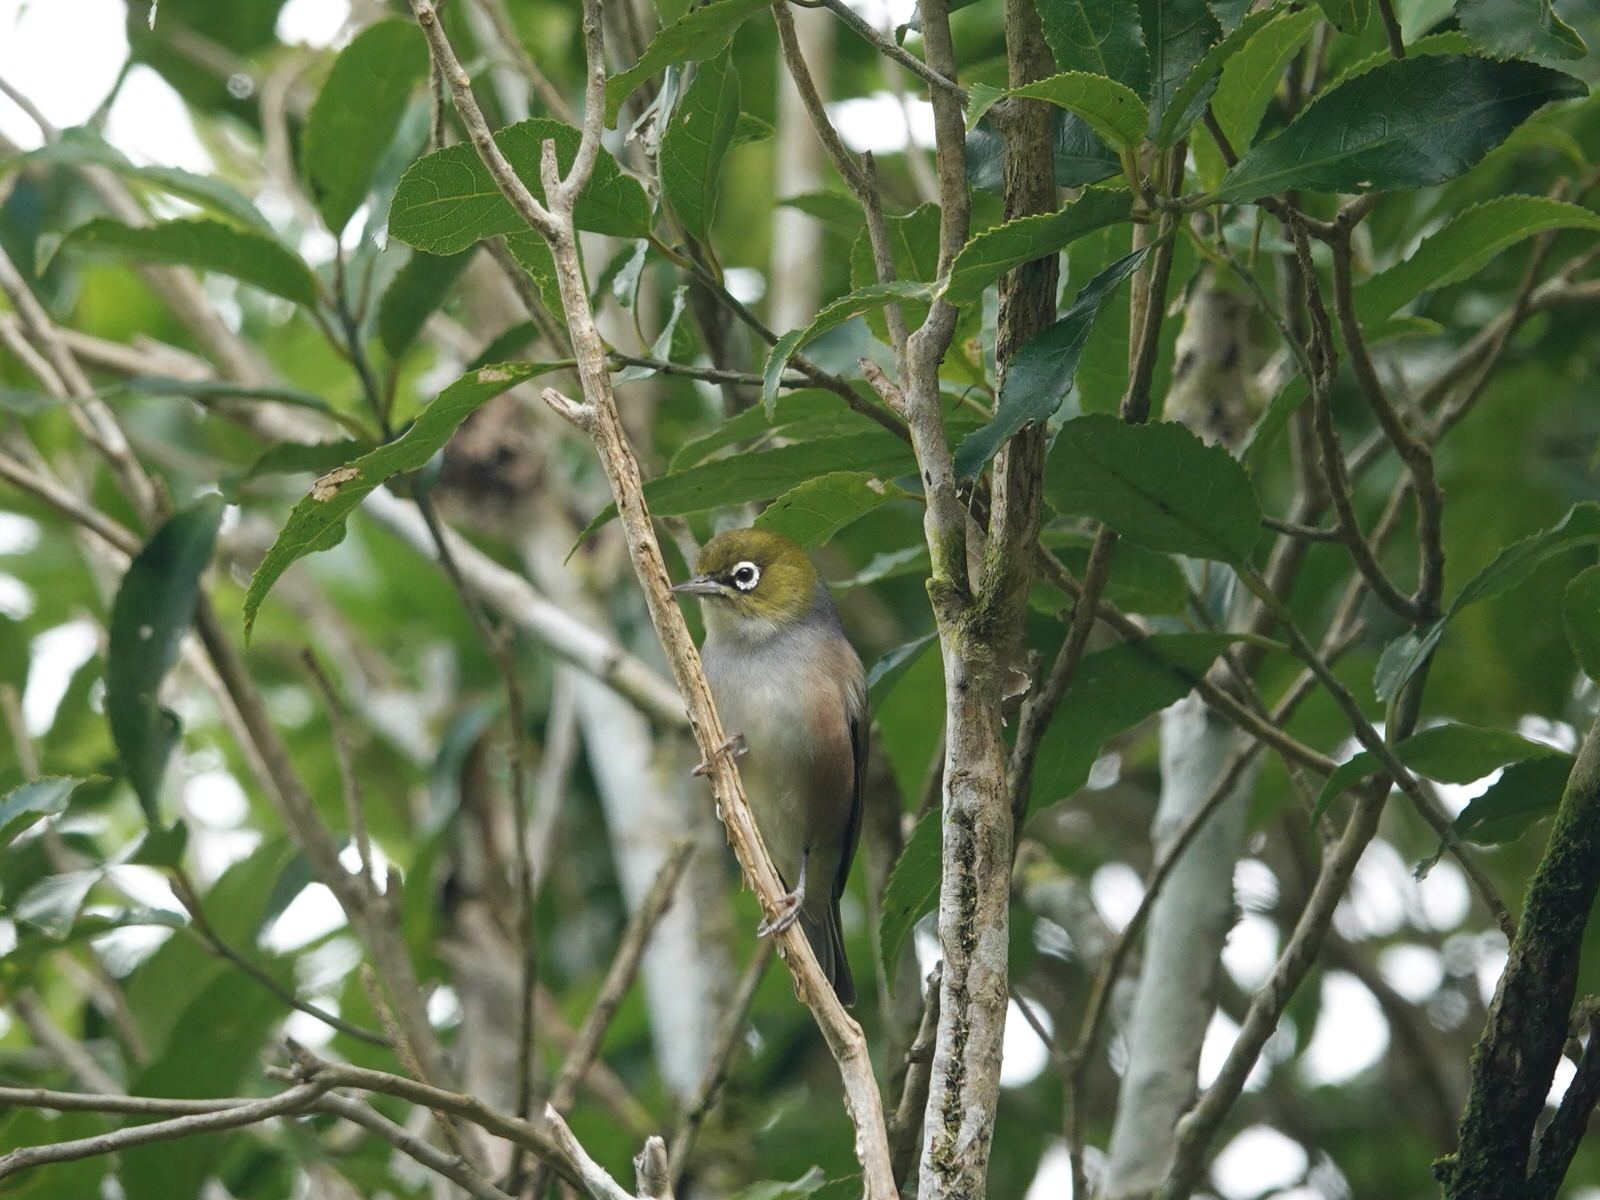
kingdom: Animalia
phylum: Chordata
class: Aves
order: Passeriformes
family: Zosteropidae
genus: Zosterops
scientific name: Zosterops lateralis
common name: Silvereye
